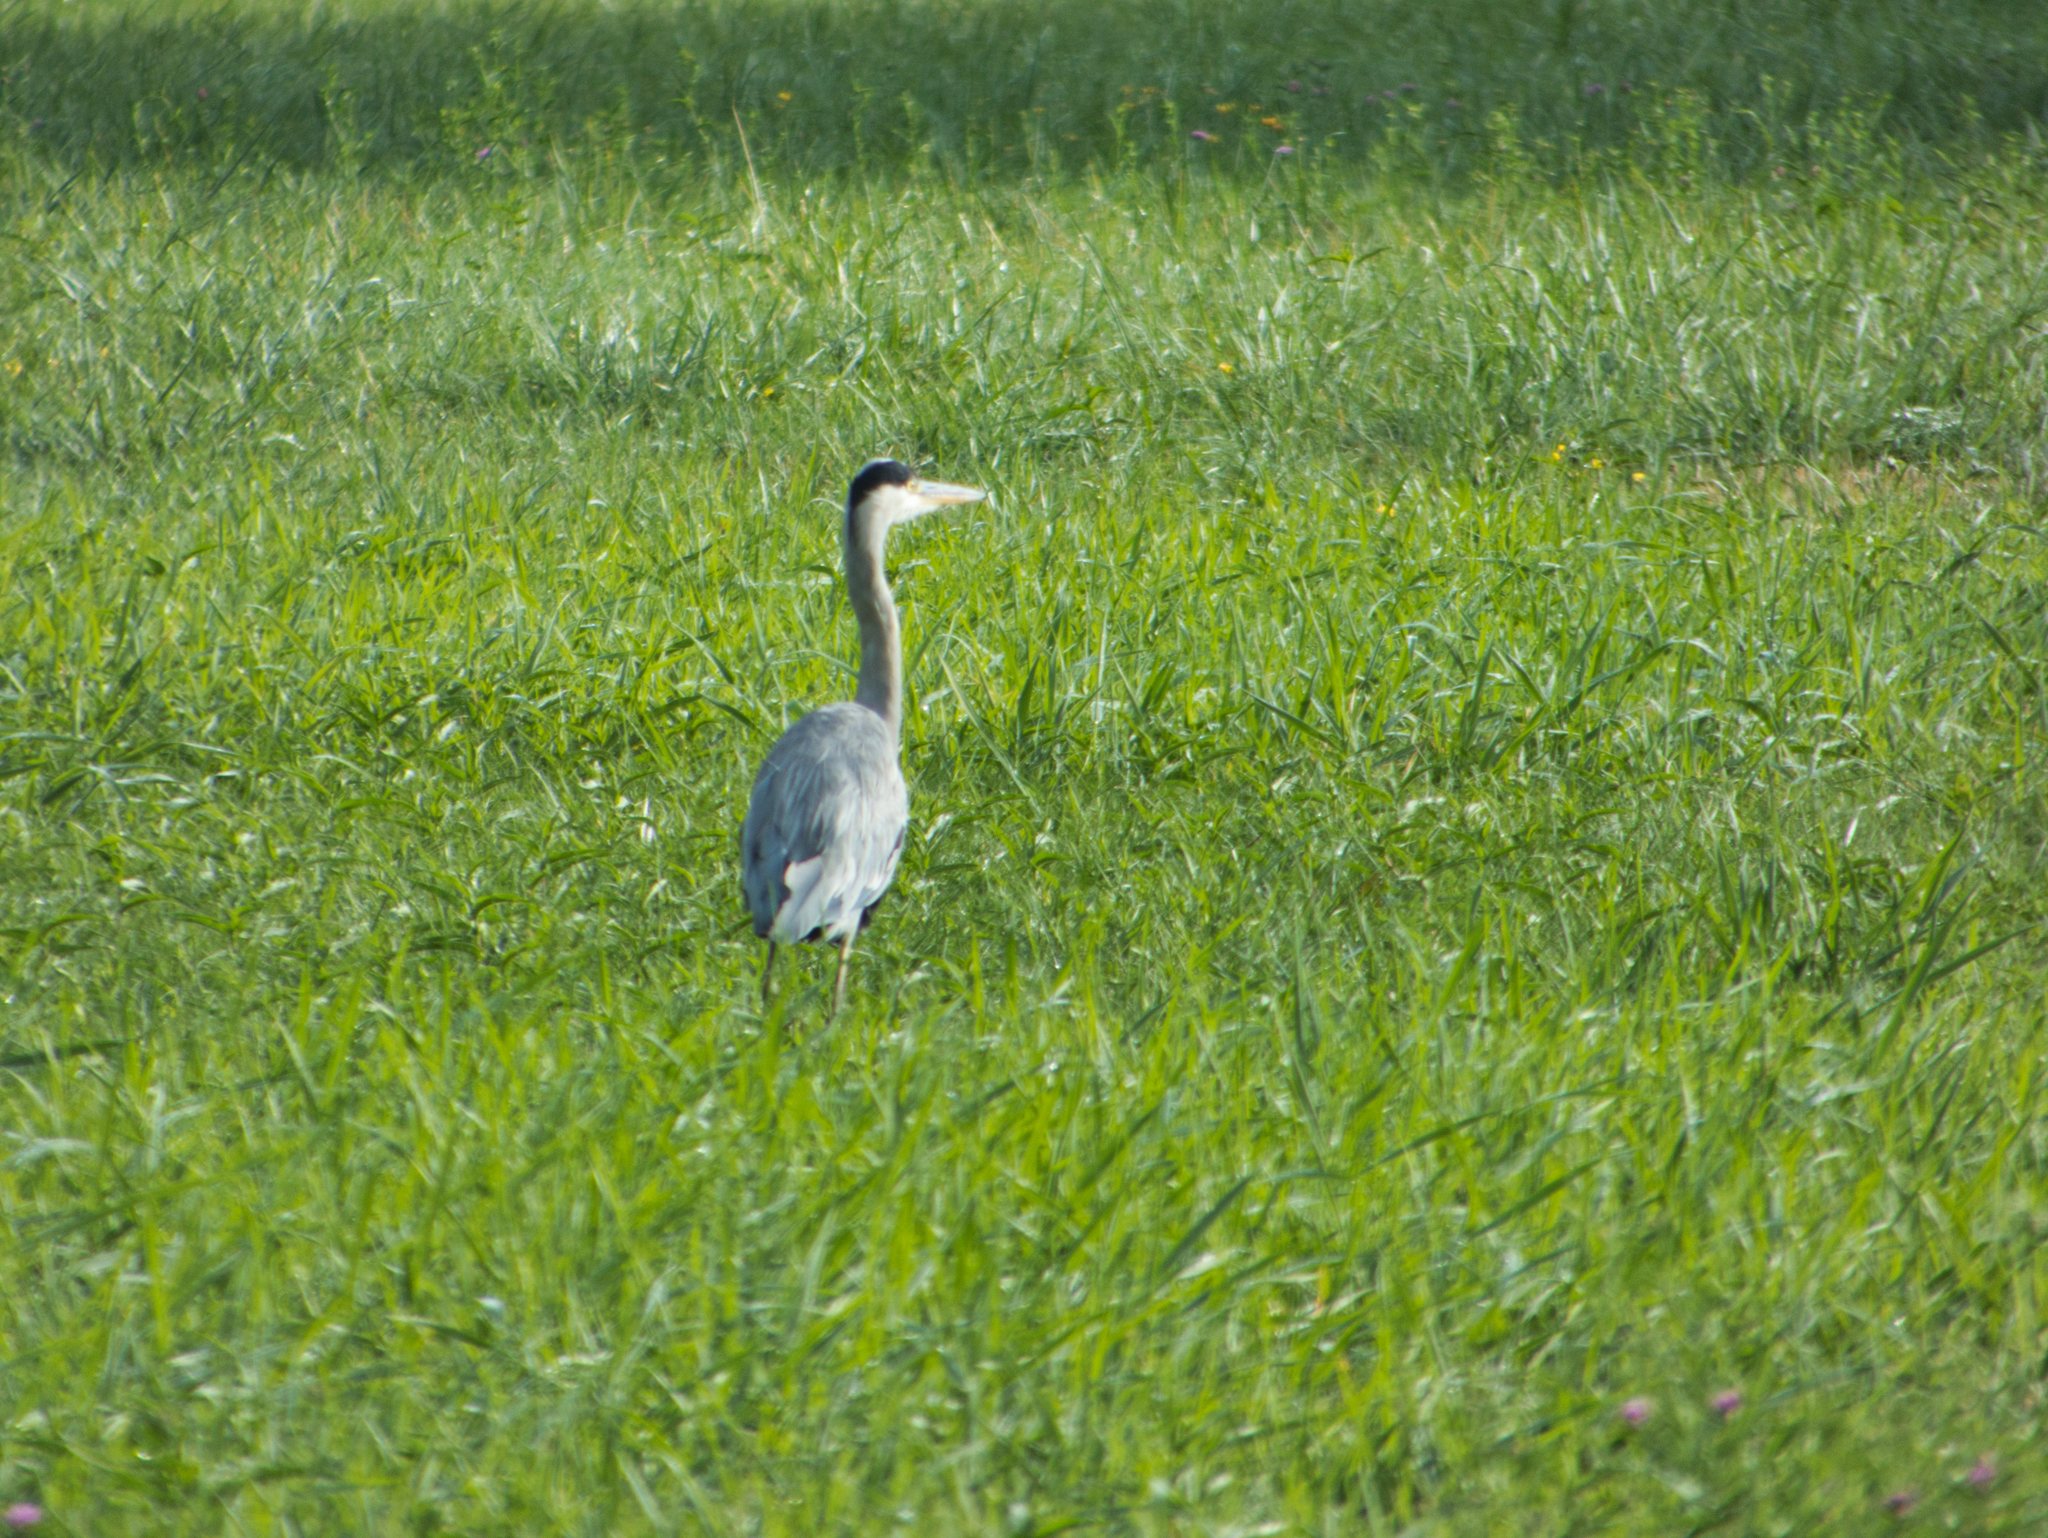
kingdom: Animalia
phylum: Chordata
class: Aves
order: Pelecaniformes
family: Ardeidae
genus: Ardea
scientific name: Ardea cinerea
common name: Grey heron
